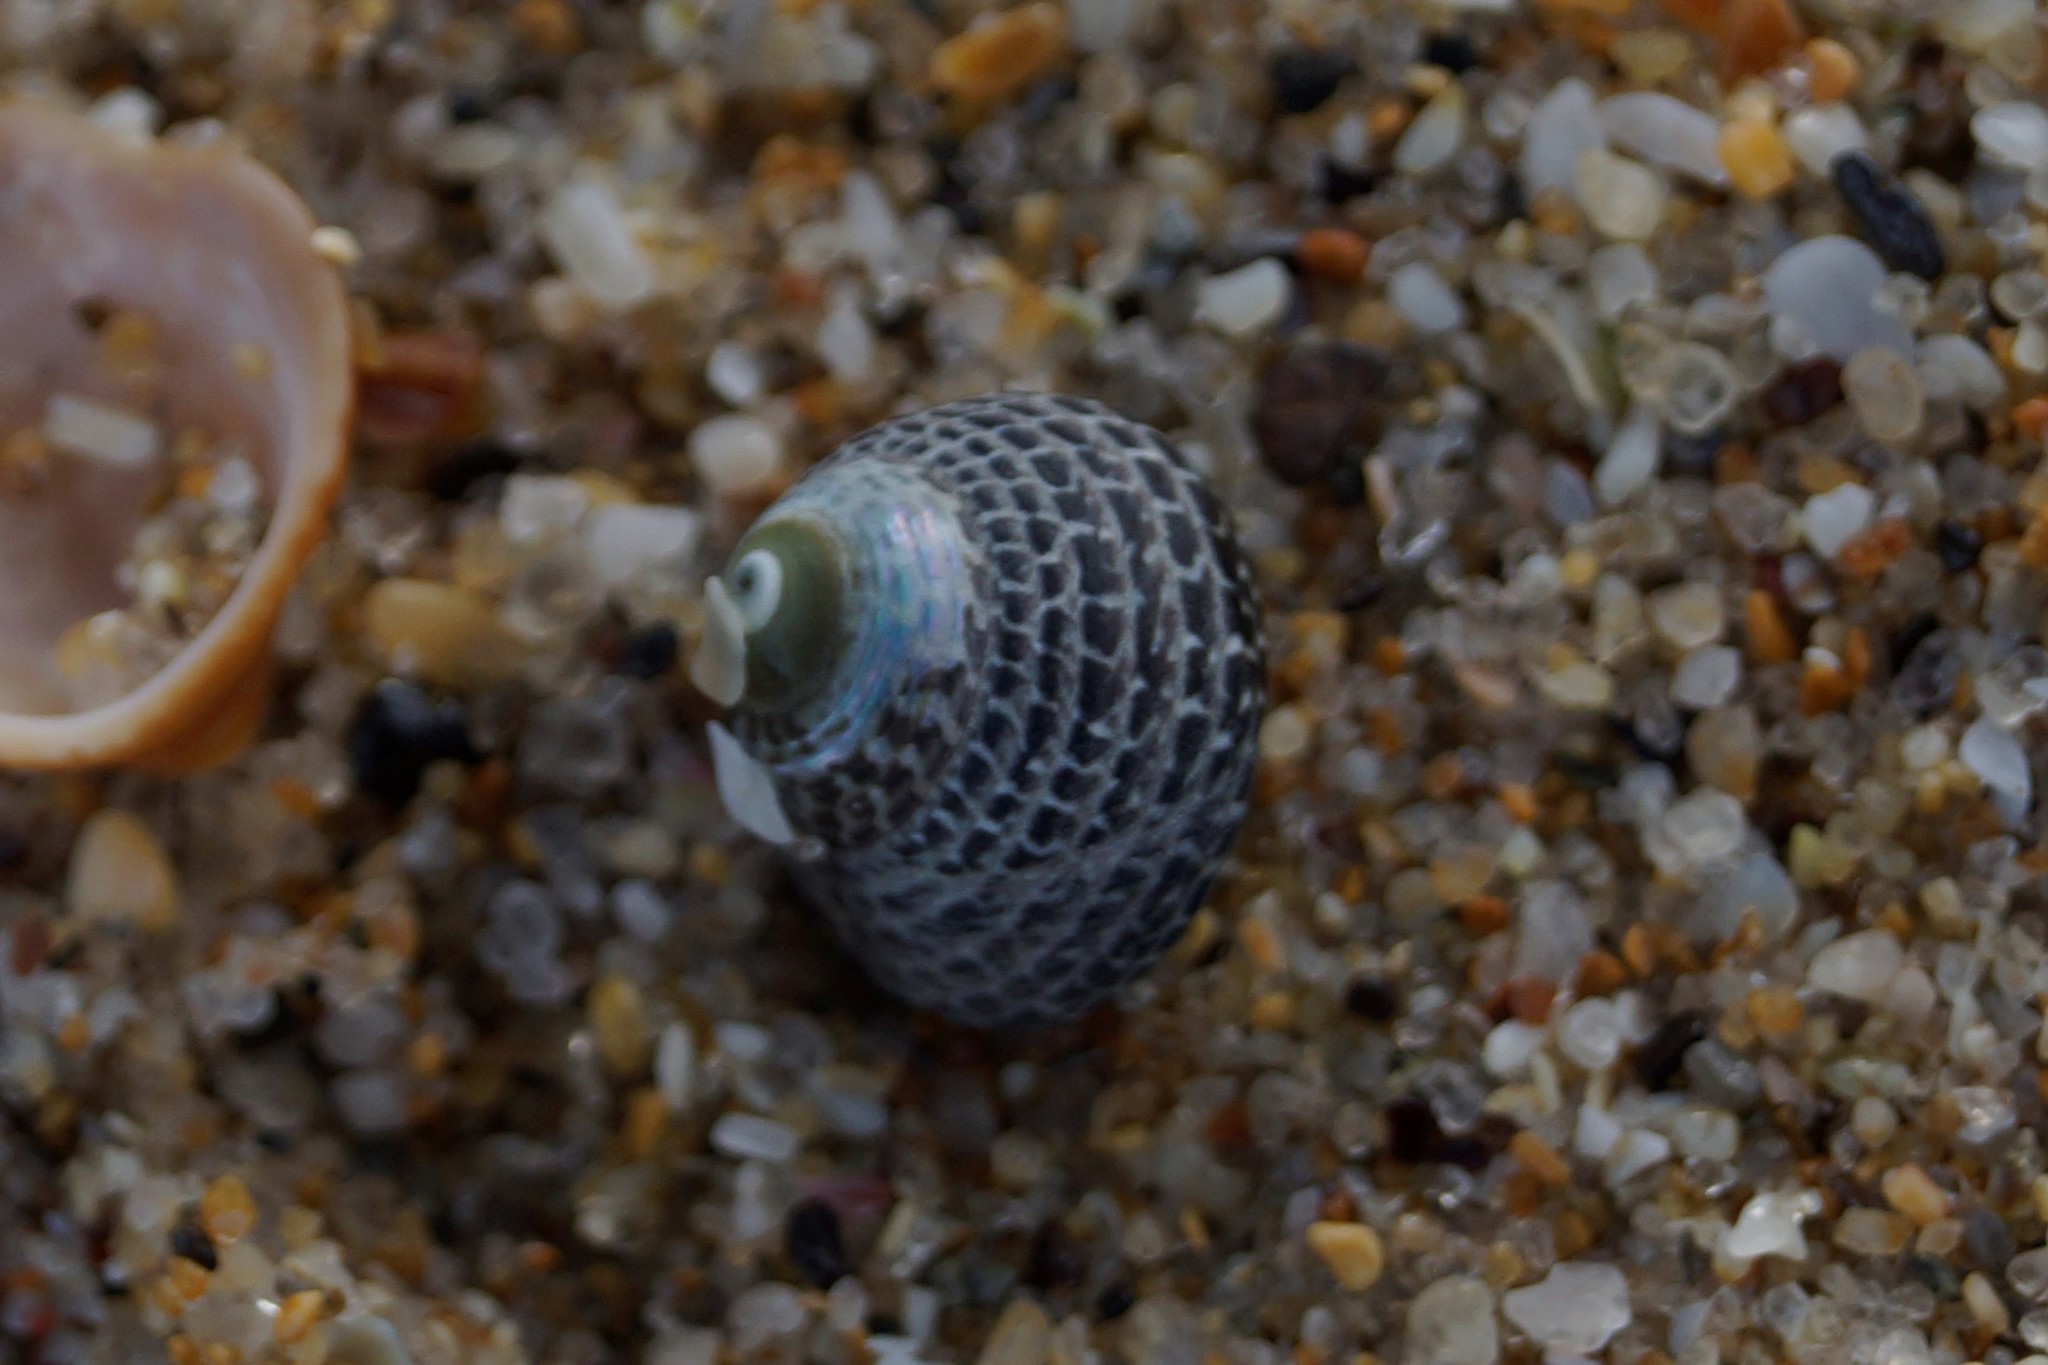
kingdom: Animalia
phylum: Mollusca
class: Gastropoda
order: Trochida
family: Trochidae
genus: Chlorodiloma
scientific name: Chlorodiloma adelaidae
